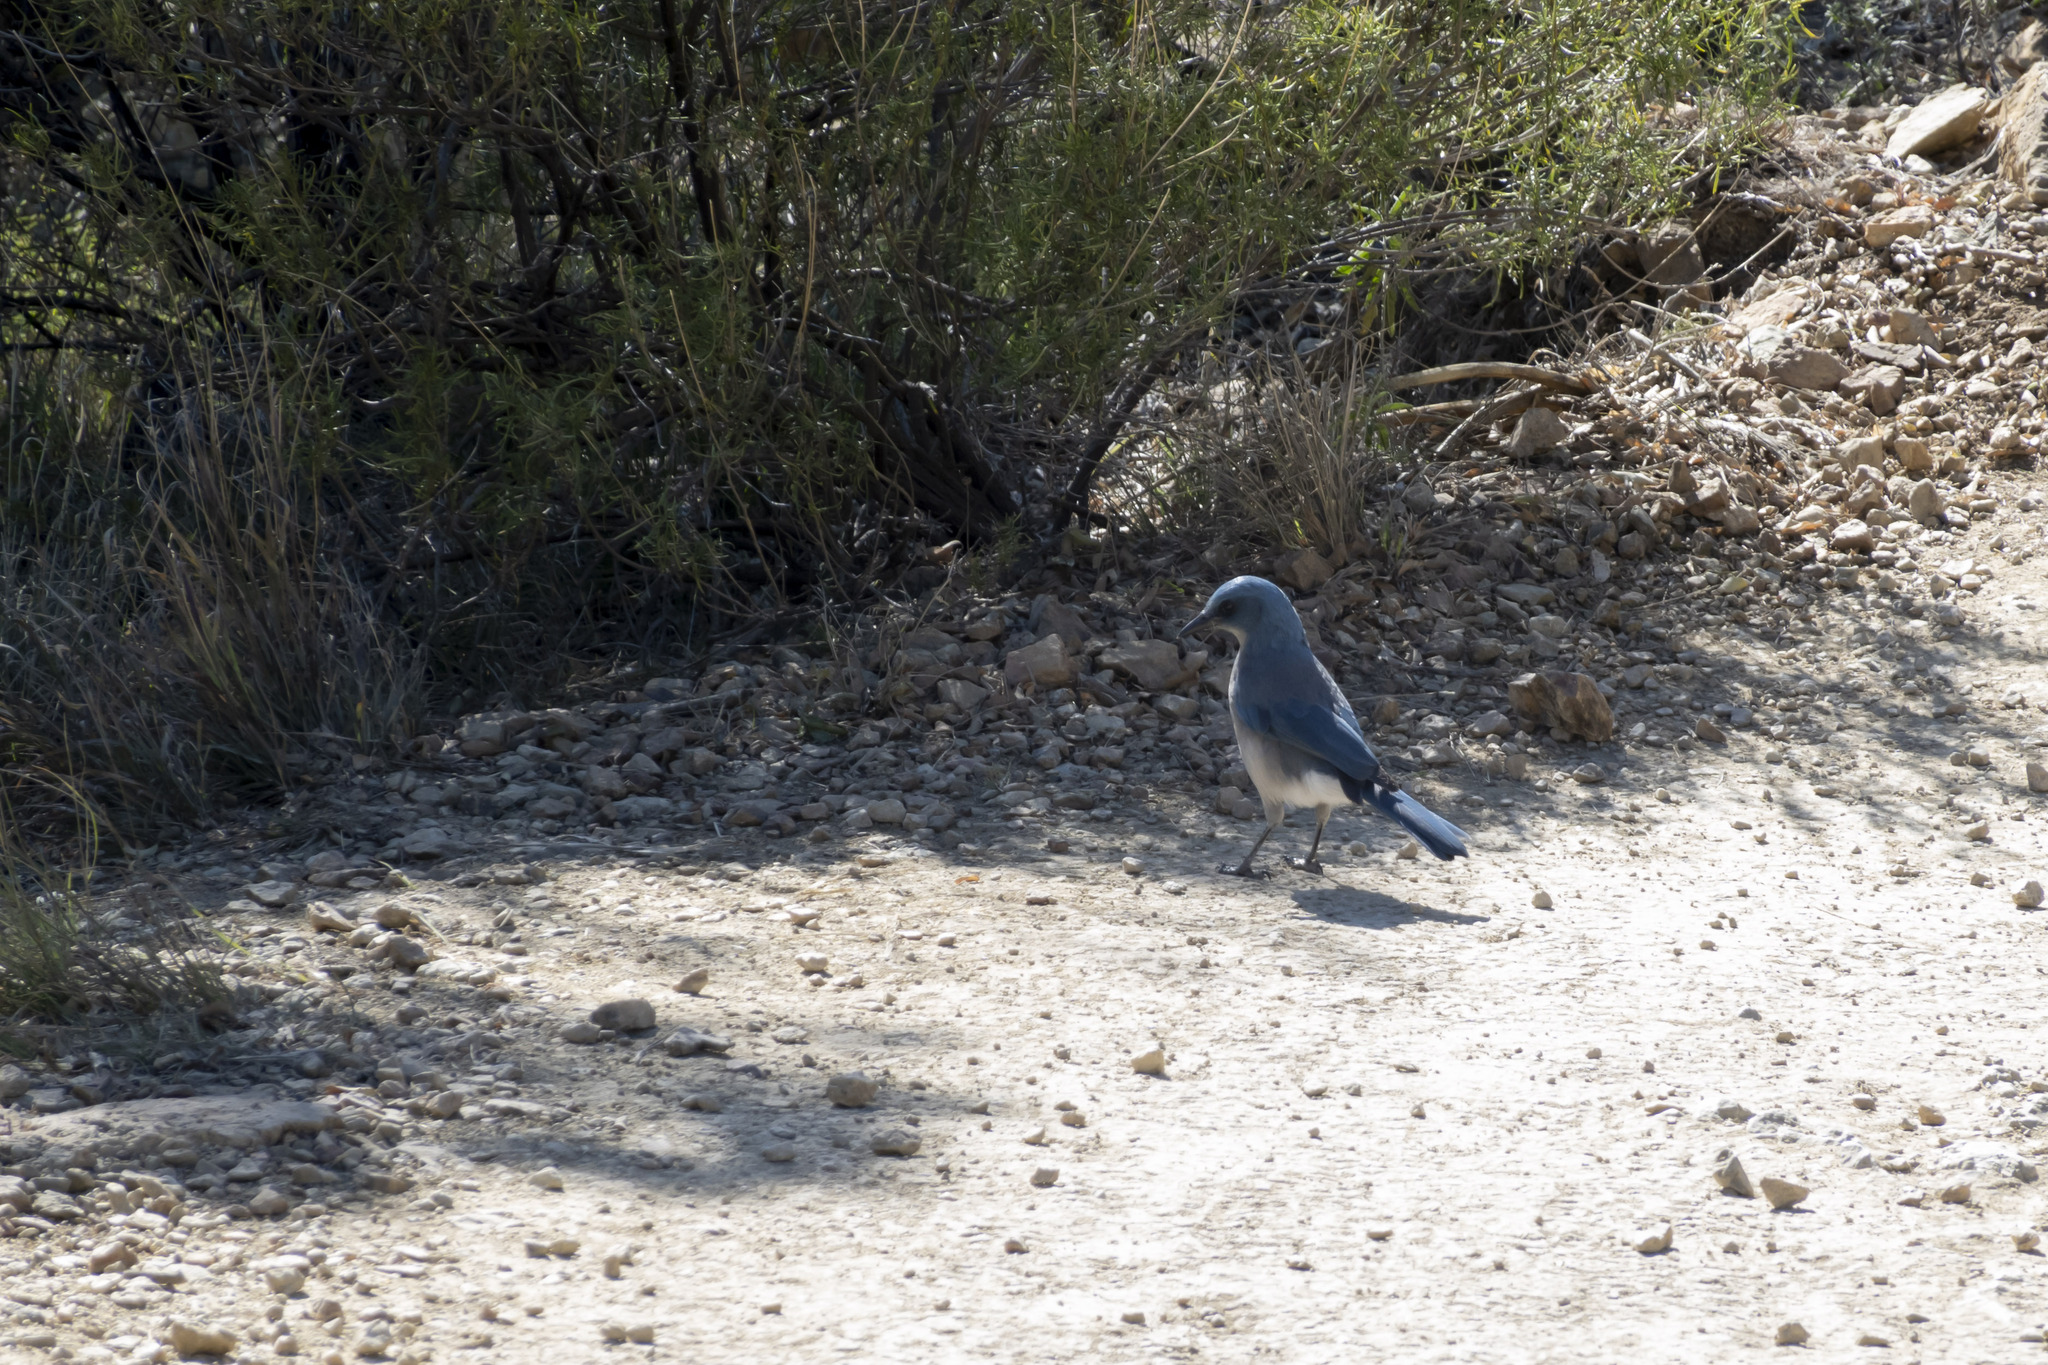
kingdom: Animalia
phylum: Chordata
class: Aves
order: Passeriformes
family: Corvidae
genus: Aphelocoma
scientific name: Aphelocoma wollweberi
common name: Mexican jay
